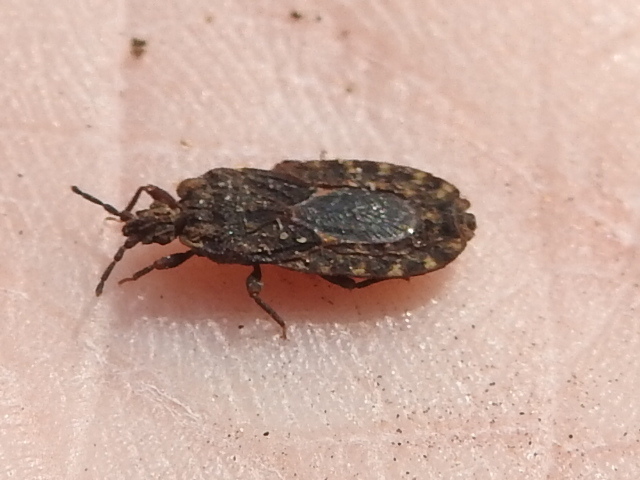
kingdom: Animalia
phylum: Arthropoda
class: Insecta
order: Hemiptera
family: Aradidae
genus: Mezira
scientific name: Mezira emarginata
